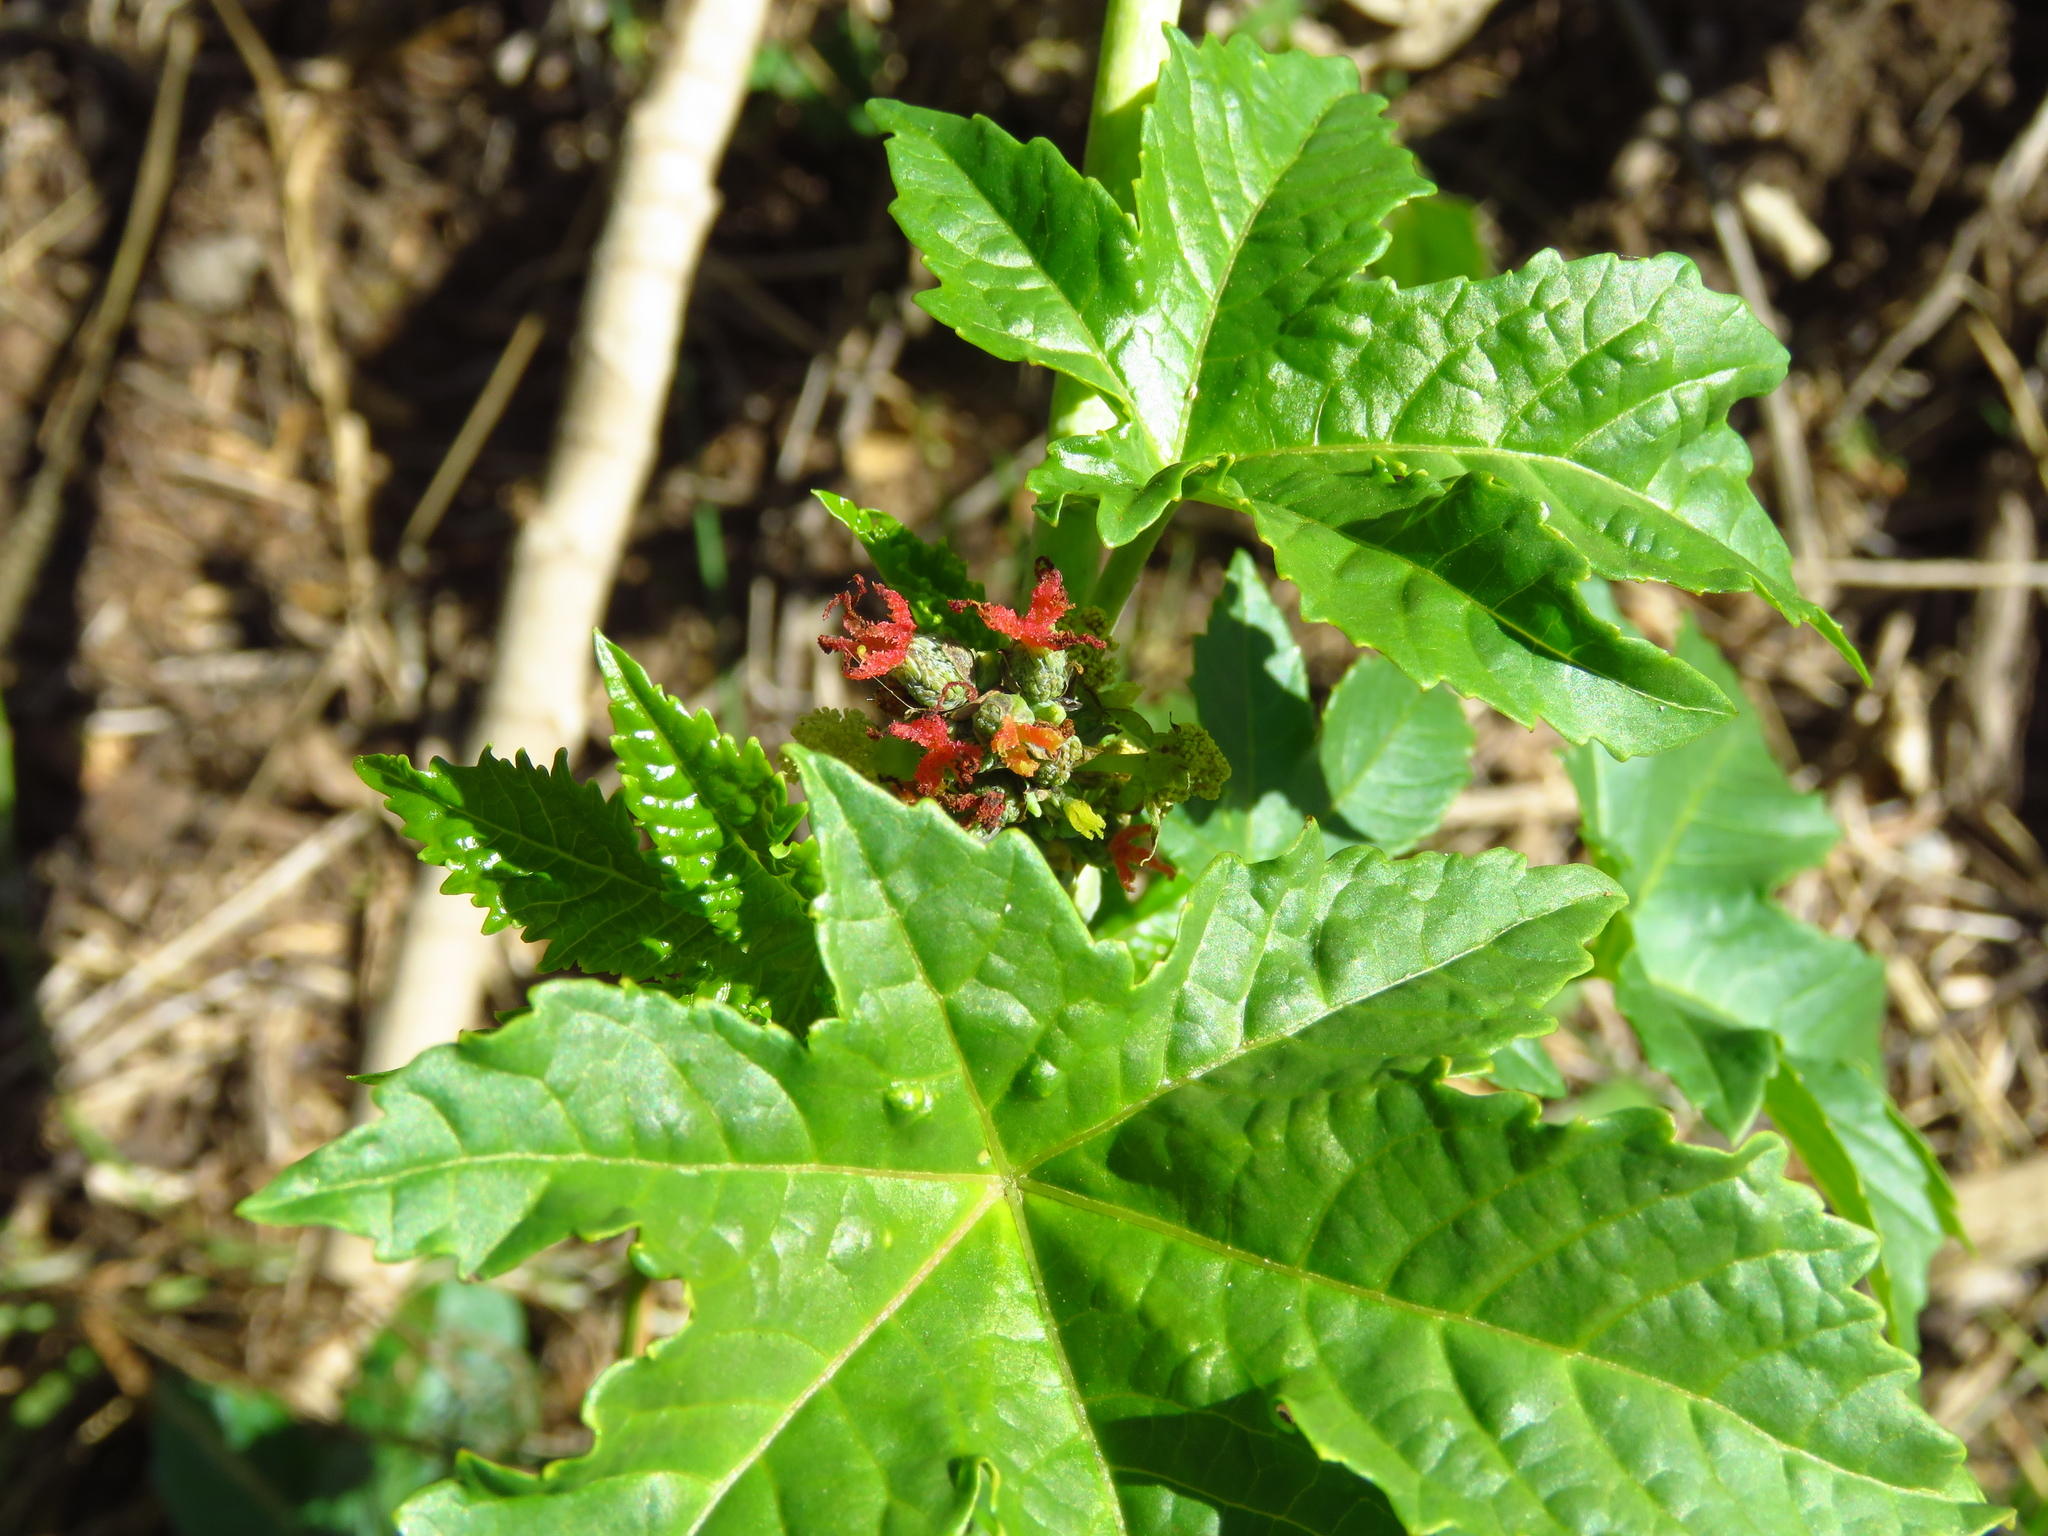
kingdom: Plantae
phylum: Tracheophyta
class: Magnoliopsida
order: Malpighiales
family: Euphorbiaceae
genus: Ricinus
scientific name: Ricinus communis
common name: Castor-oil-plant
